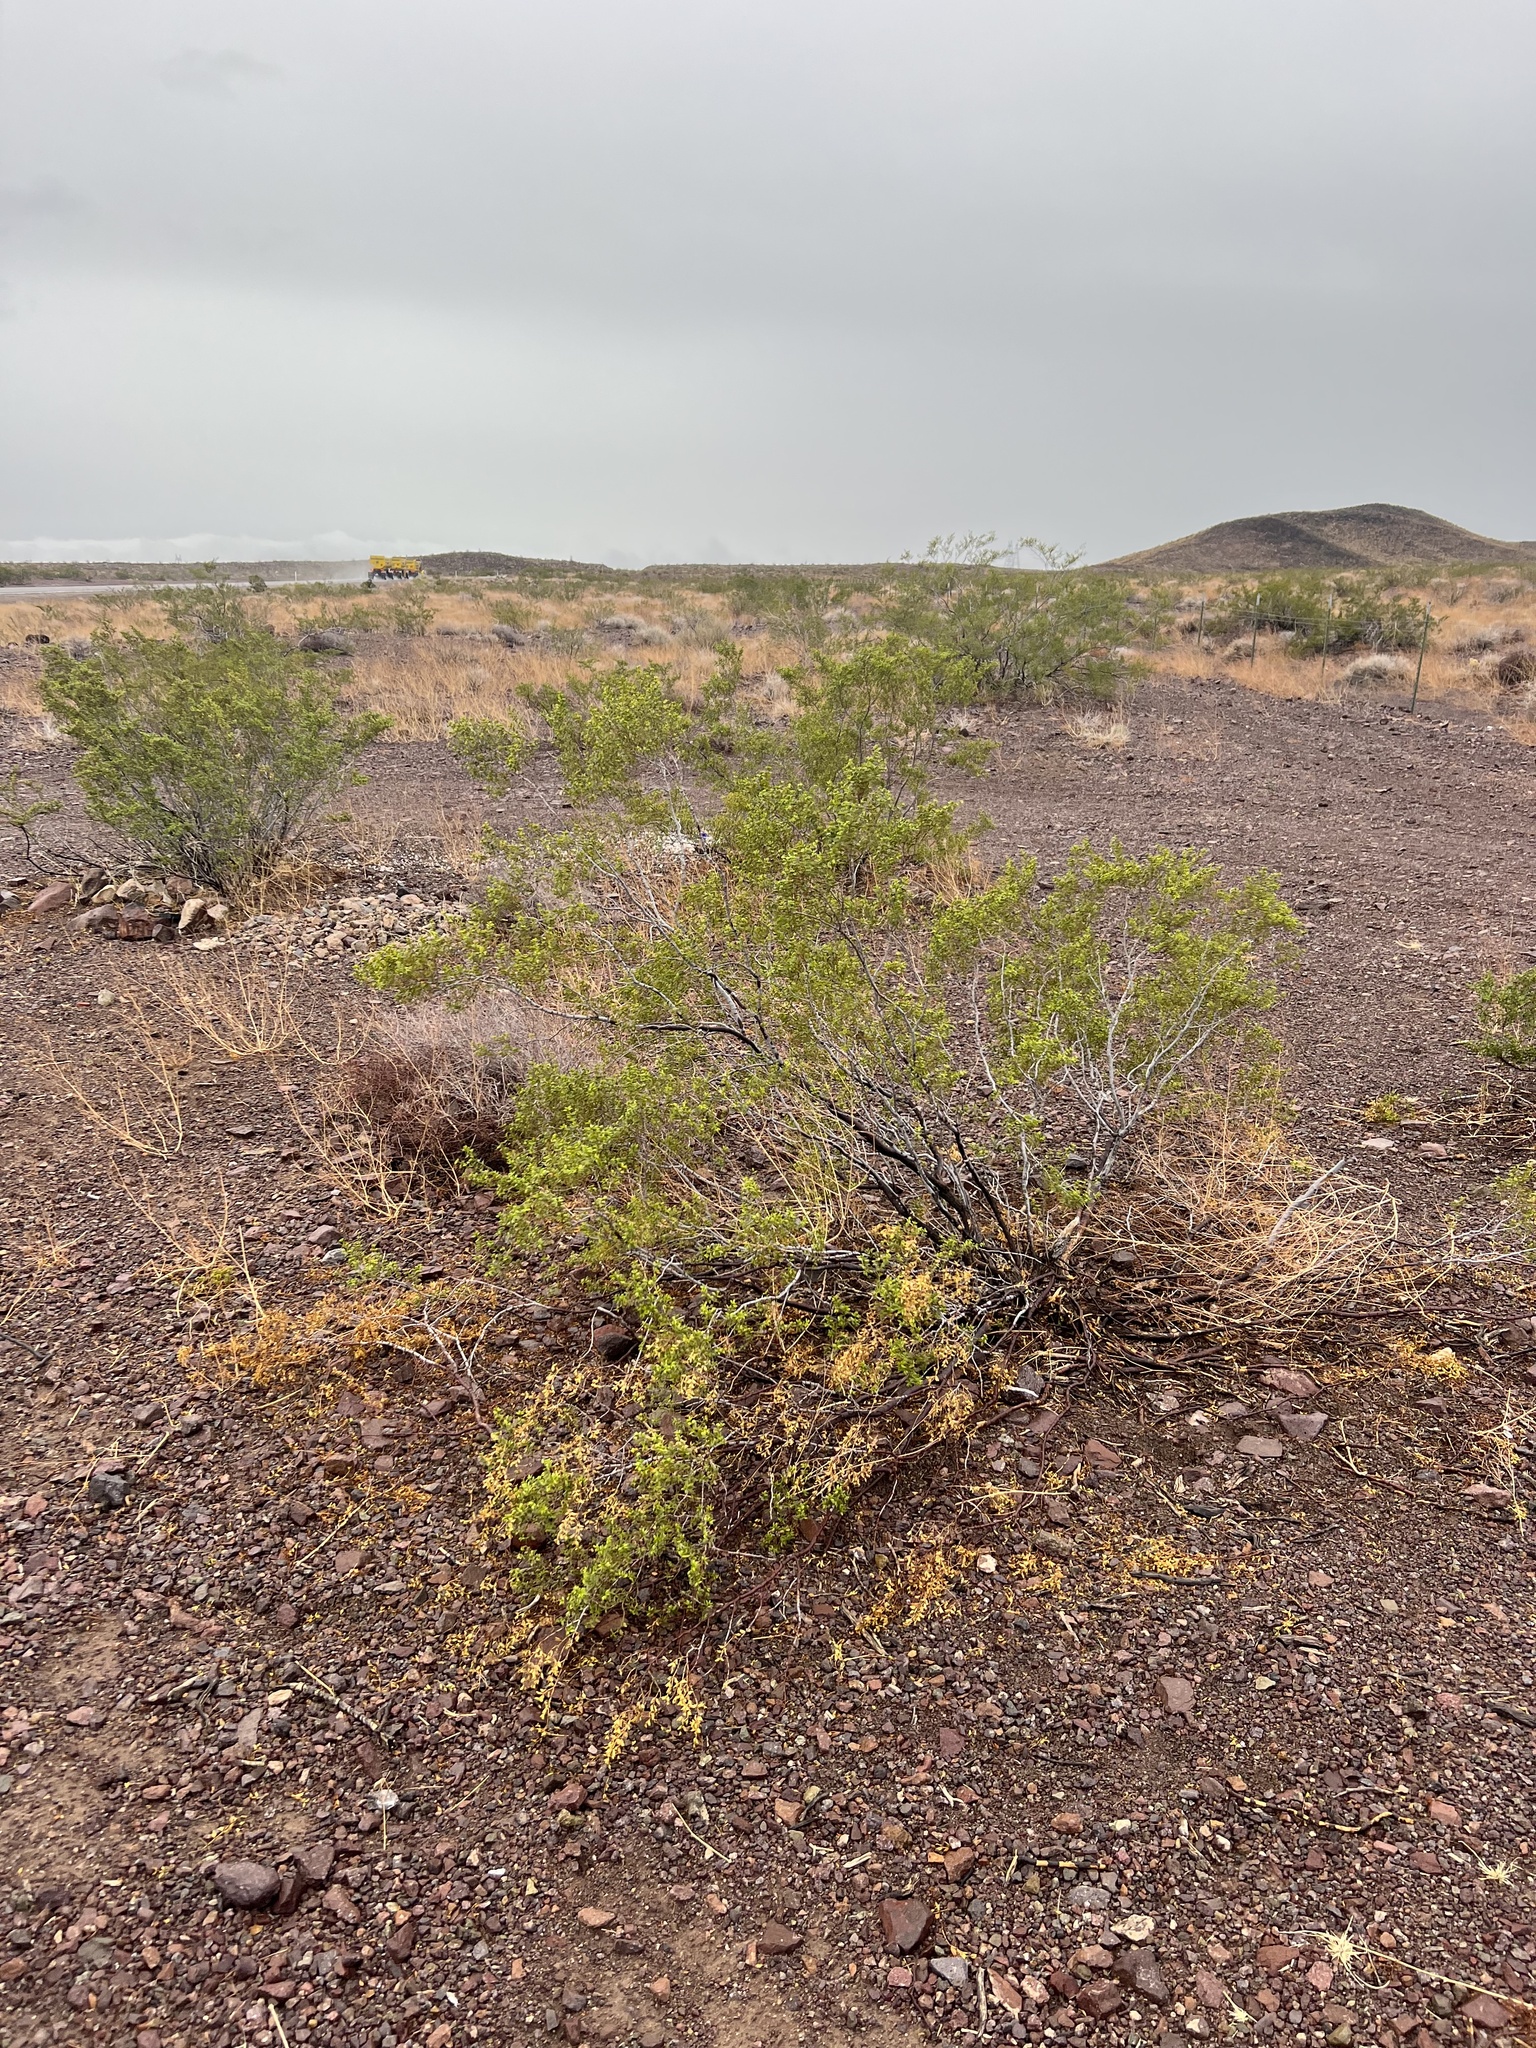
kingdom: Plantae
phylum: Tracheophyta
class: Magnoliopsida
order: Zygophyllales
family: Zygophyllaceae
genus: Larrea
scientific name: Larrea tridentata
